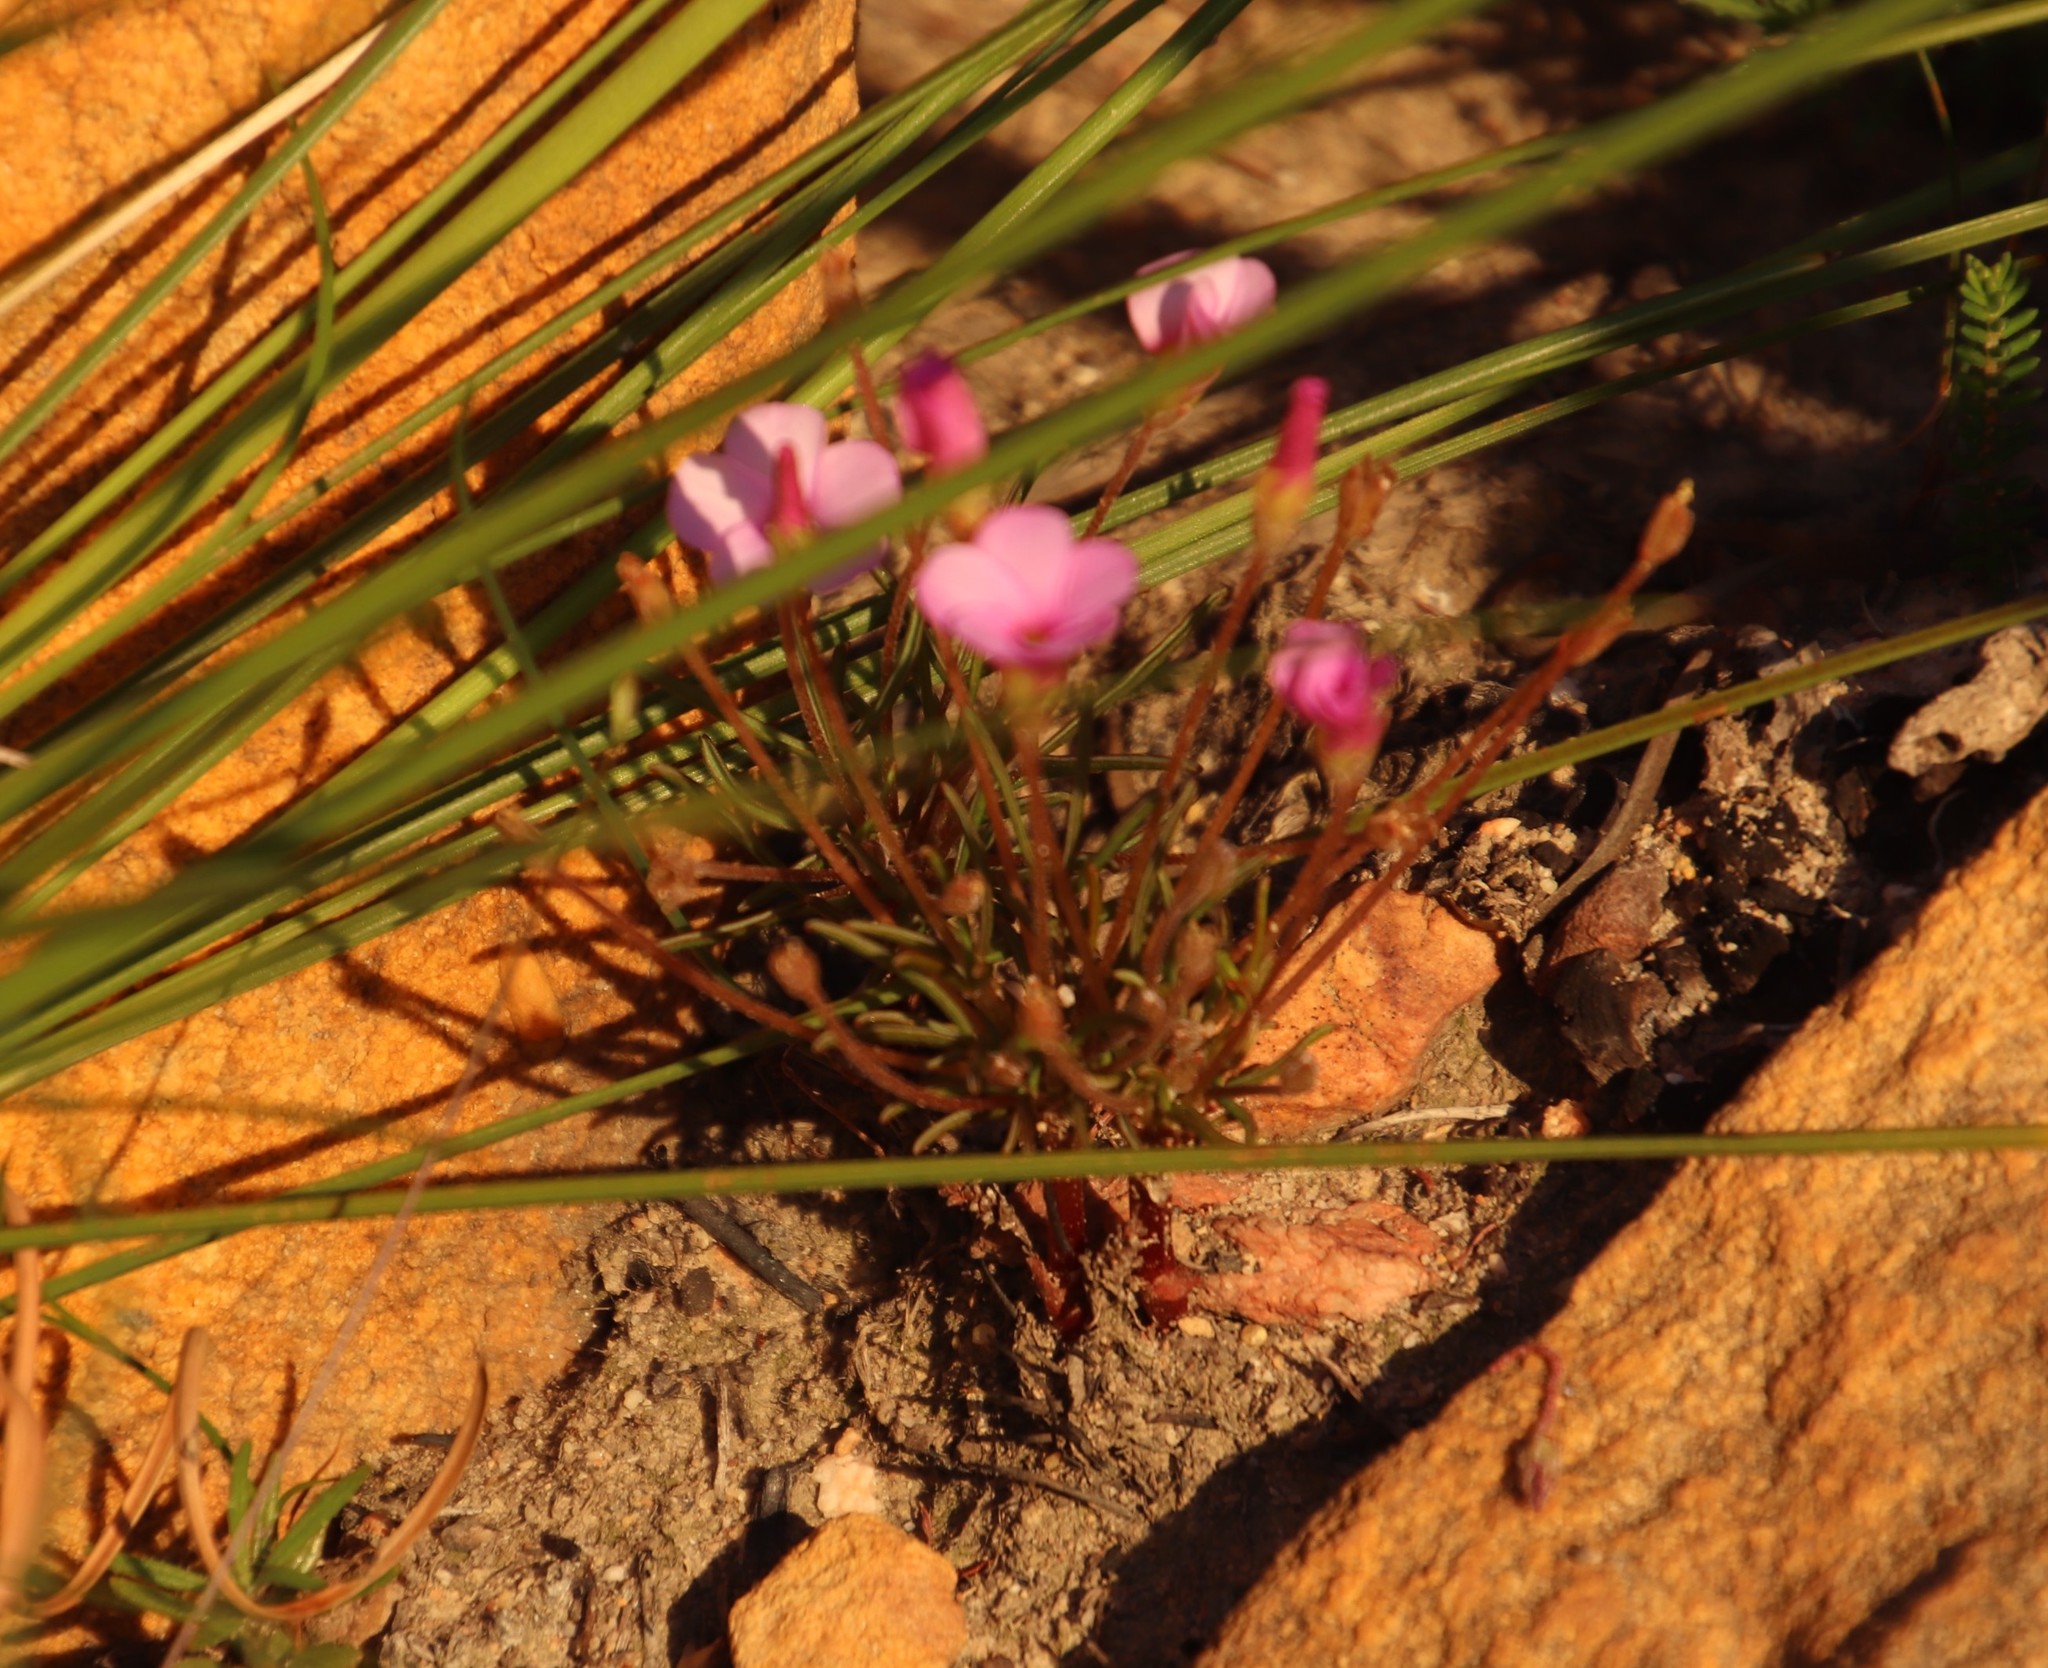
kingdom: Plantae
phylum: Tracheophyta
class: Magnoliopsida
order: Oxalidales
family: Oxalidaceae
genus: Oxalis
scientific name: Oxalis polyphylla
